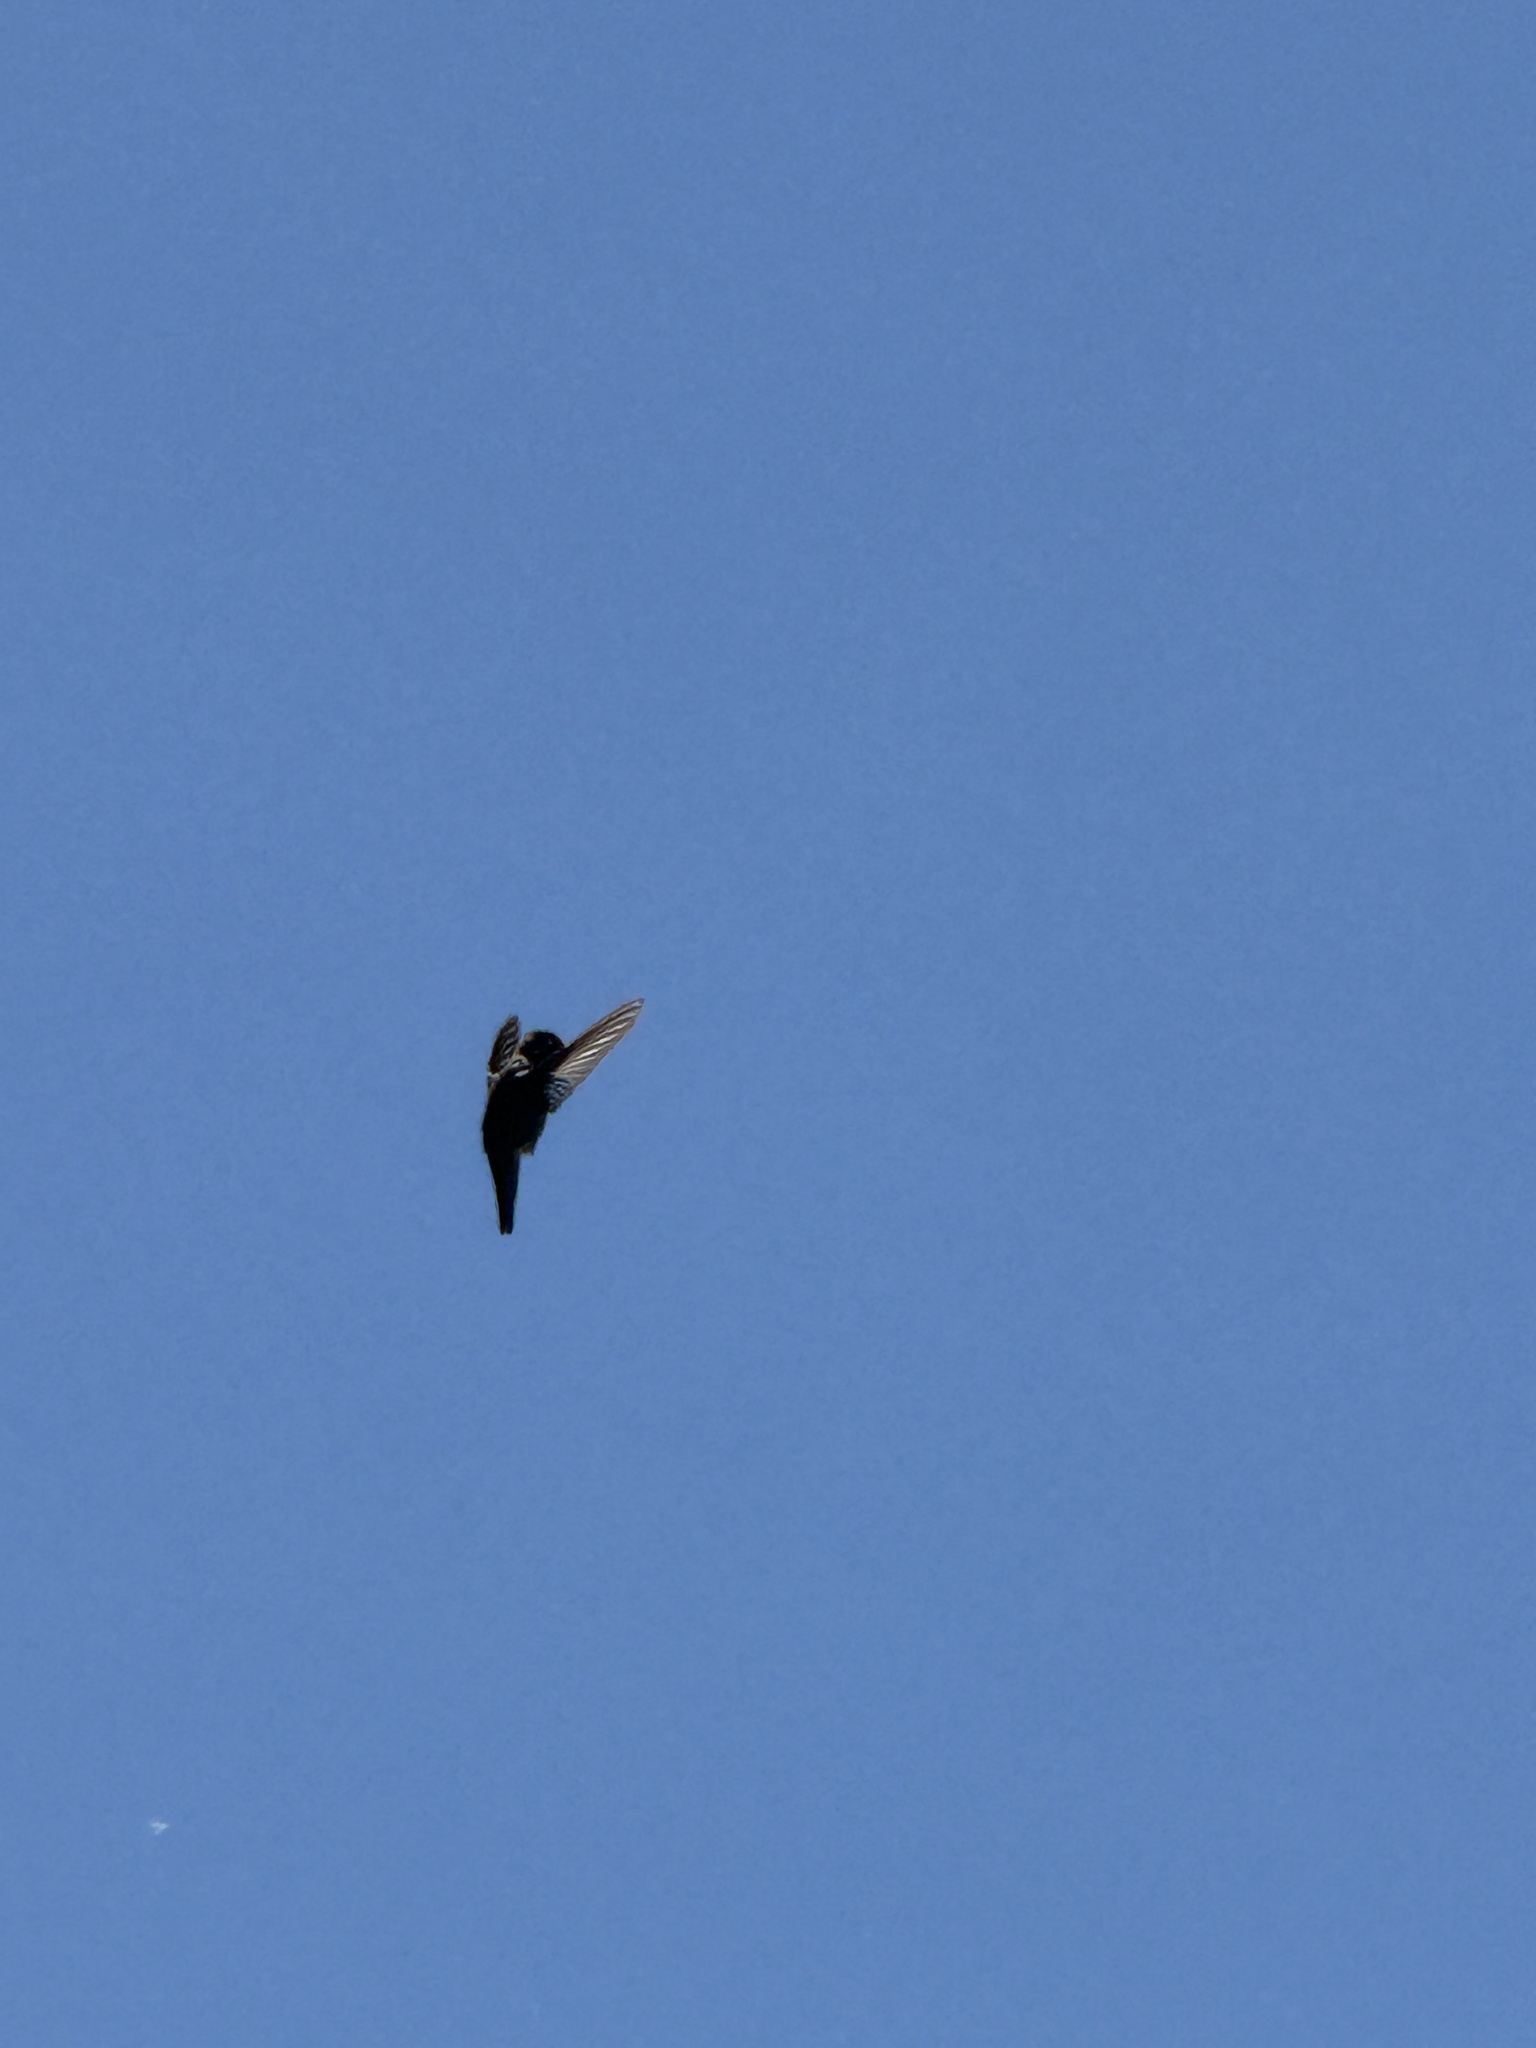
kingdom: Animalia
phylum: Chordata
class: Aves
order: Apodiformes
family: Trochilidae
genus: Calypte
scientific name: Calypte anna
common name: Anna's hummingbird
